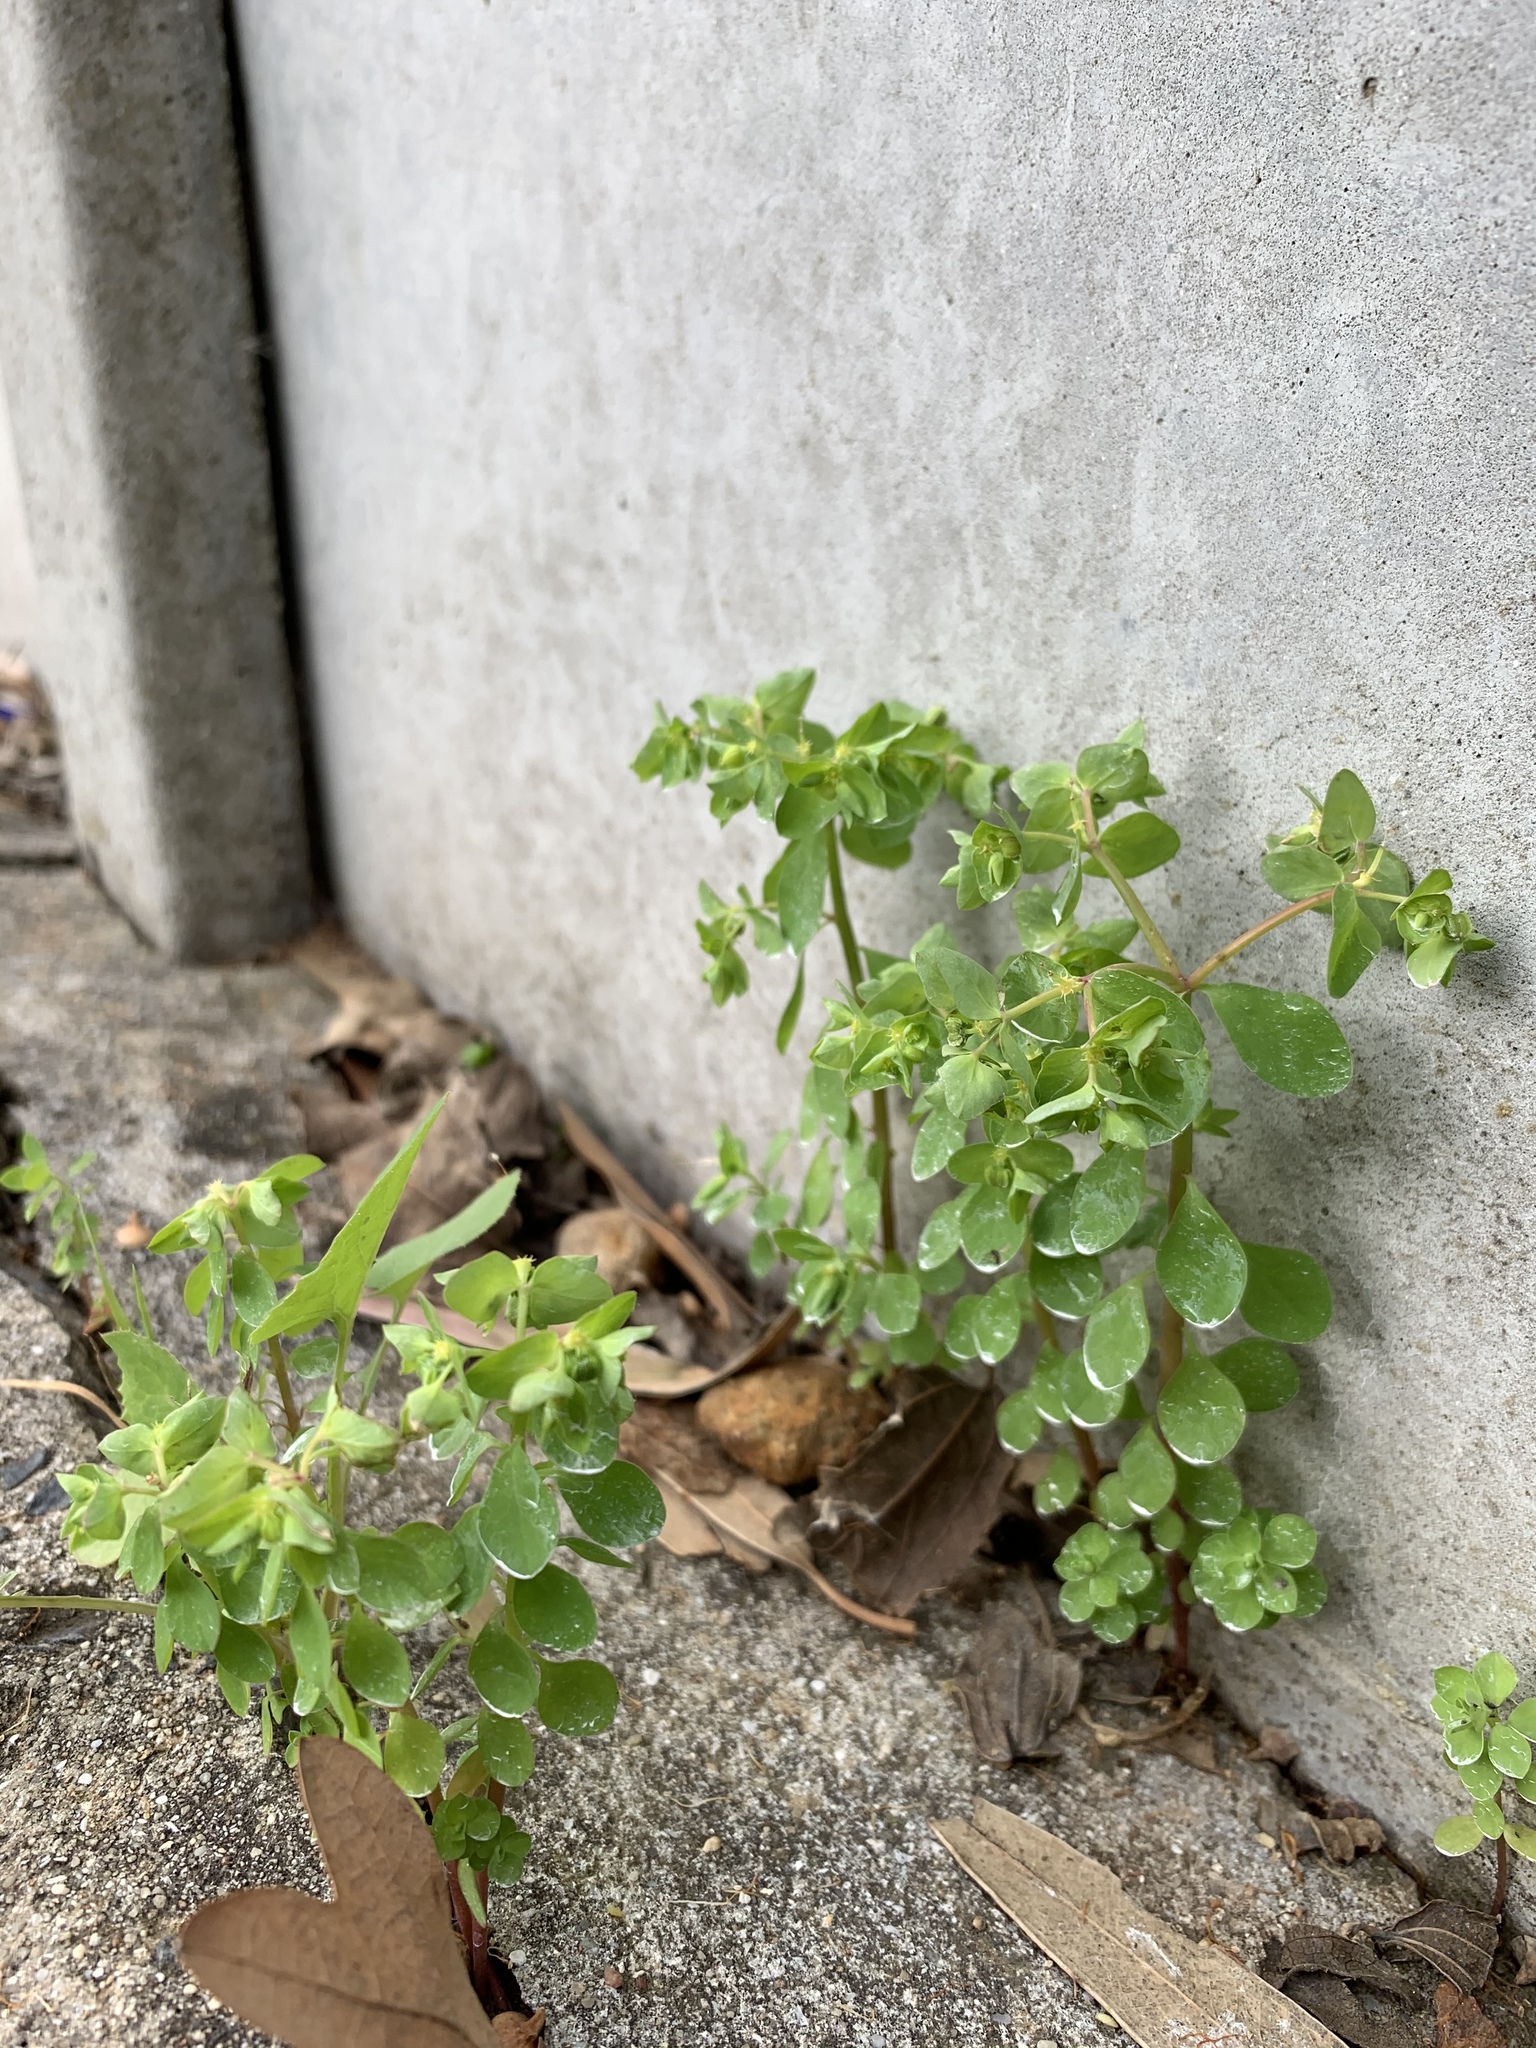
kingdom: Plantae
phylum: Tracheophyta
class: Magnoliopsida
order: Malpighiales
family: Euphorbiaceae
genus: Euphorbia
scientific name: Euphorbia peplus
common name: Petty spurge
